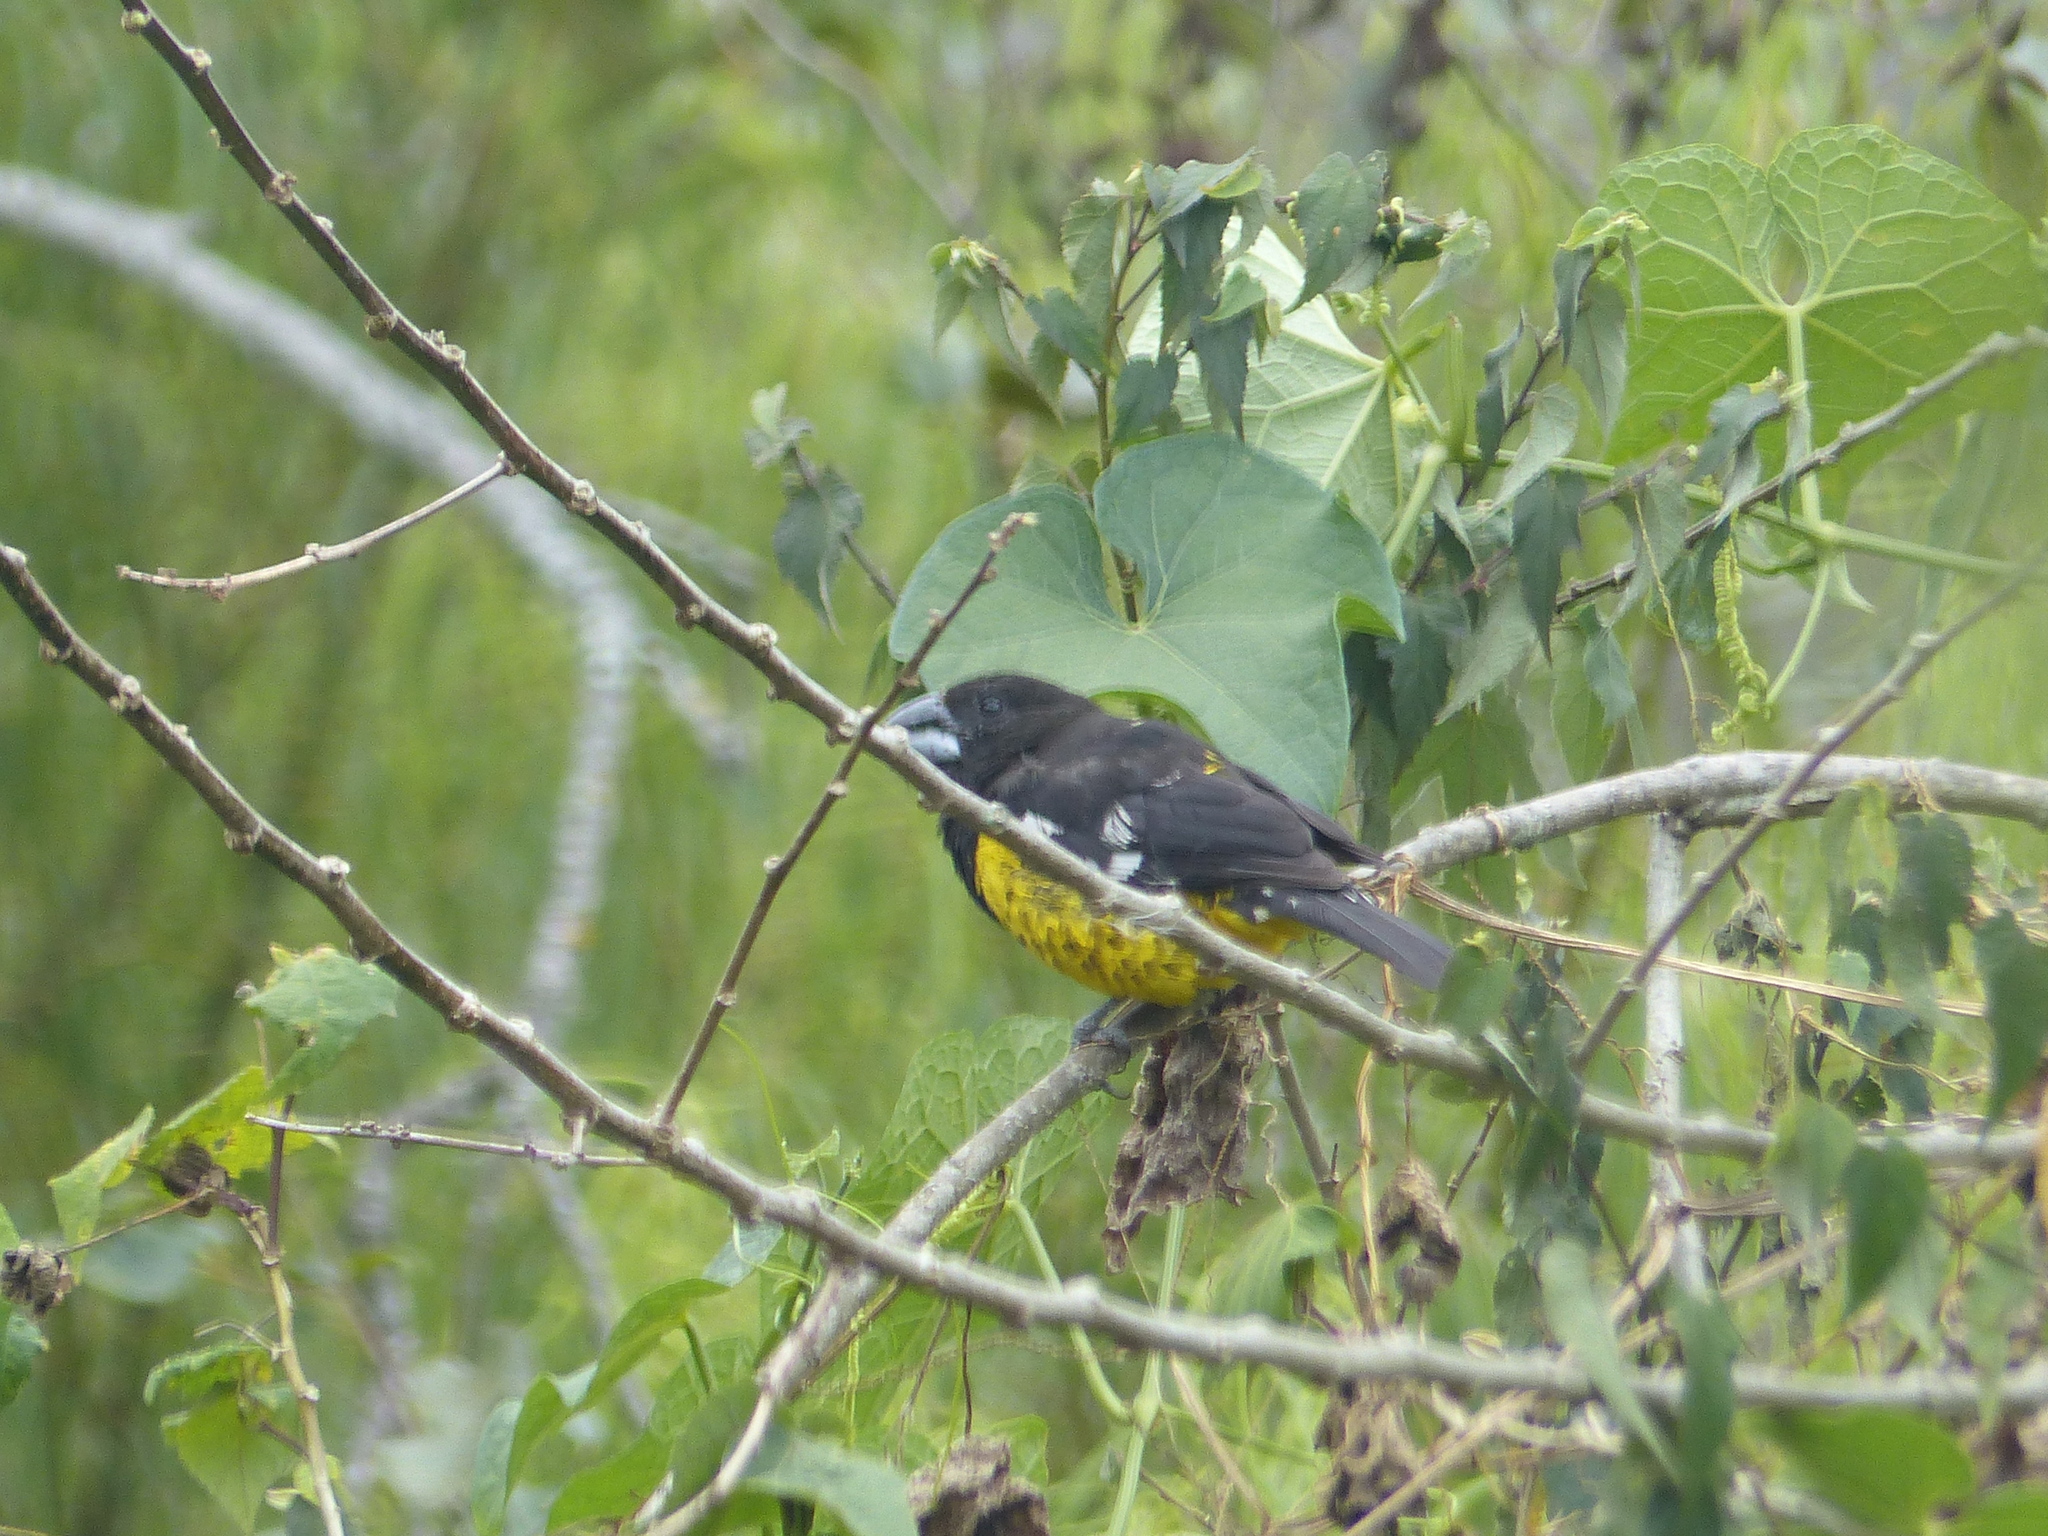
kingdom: Animalia
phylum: Chordata
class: Aves
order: Passeriformes
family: Cardinalidae
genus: Pheucticus
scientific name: Pheucticus aureoventris
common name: Black-backed grosbeak
